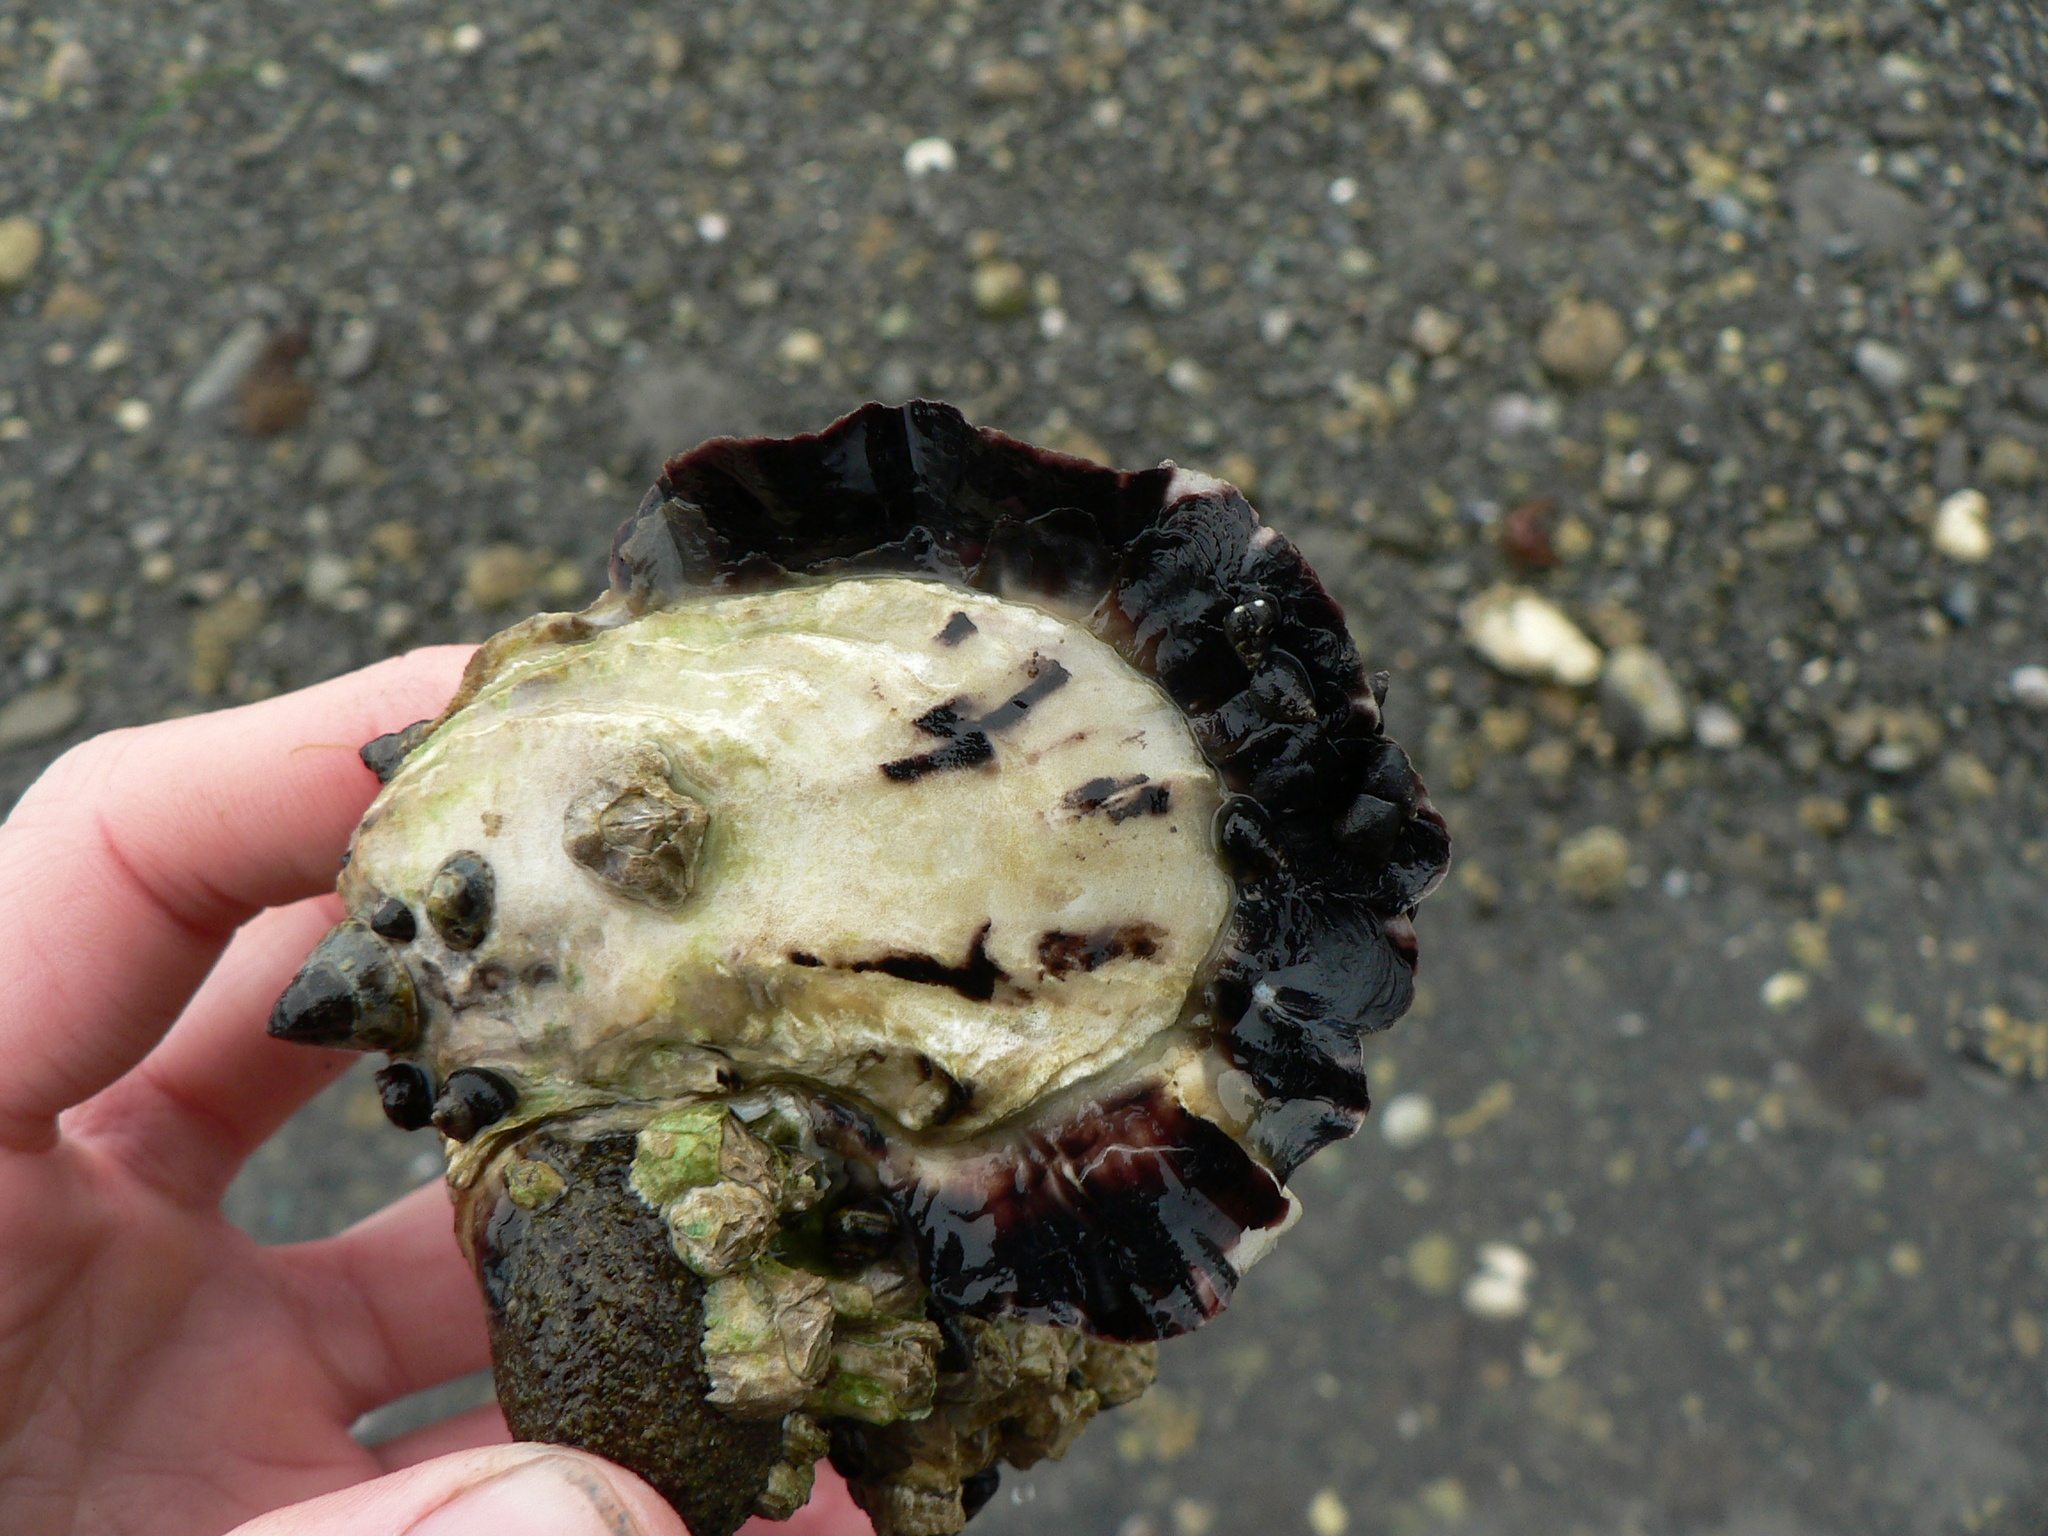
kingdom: Animalia
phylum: Mollusca
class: Bivalvia
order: Ostreida
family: Ostreidae
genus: Magallana
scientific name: Magallana gigas
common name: Pacific oyster
